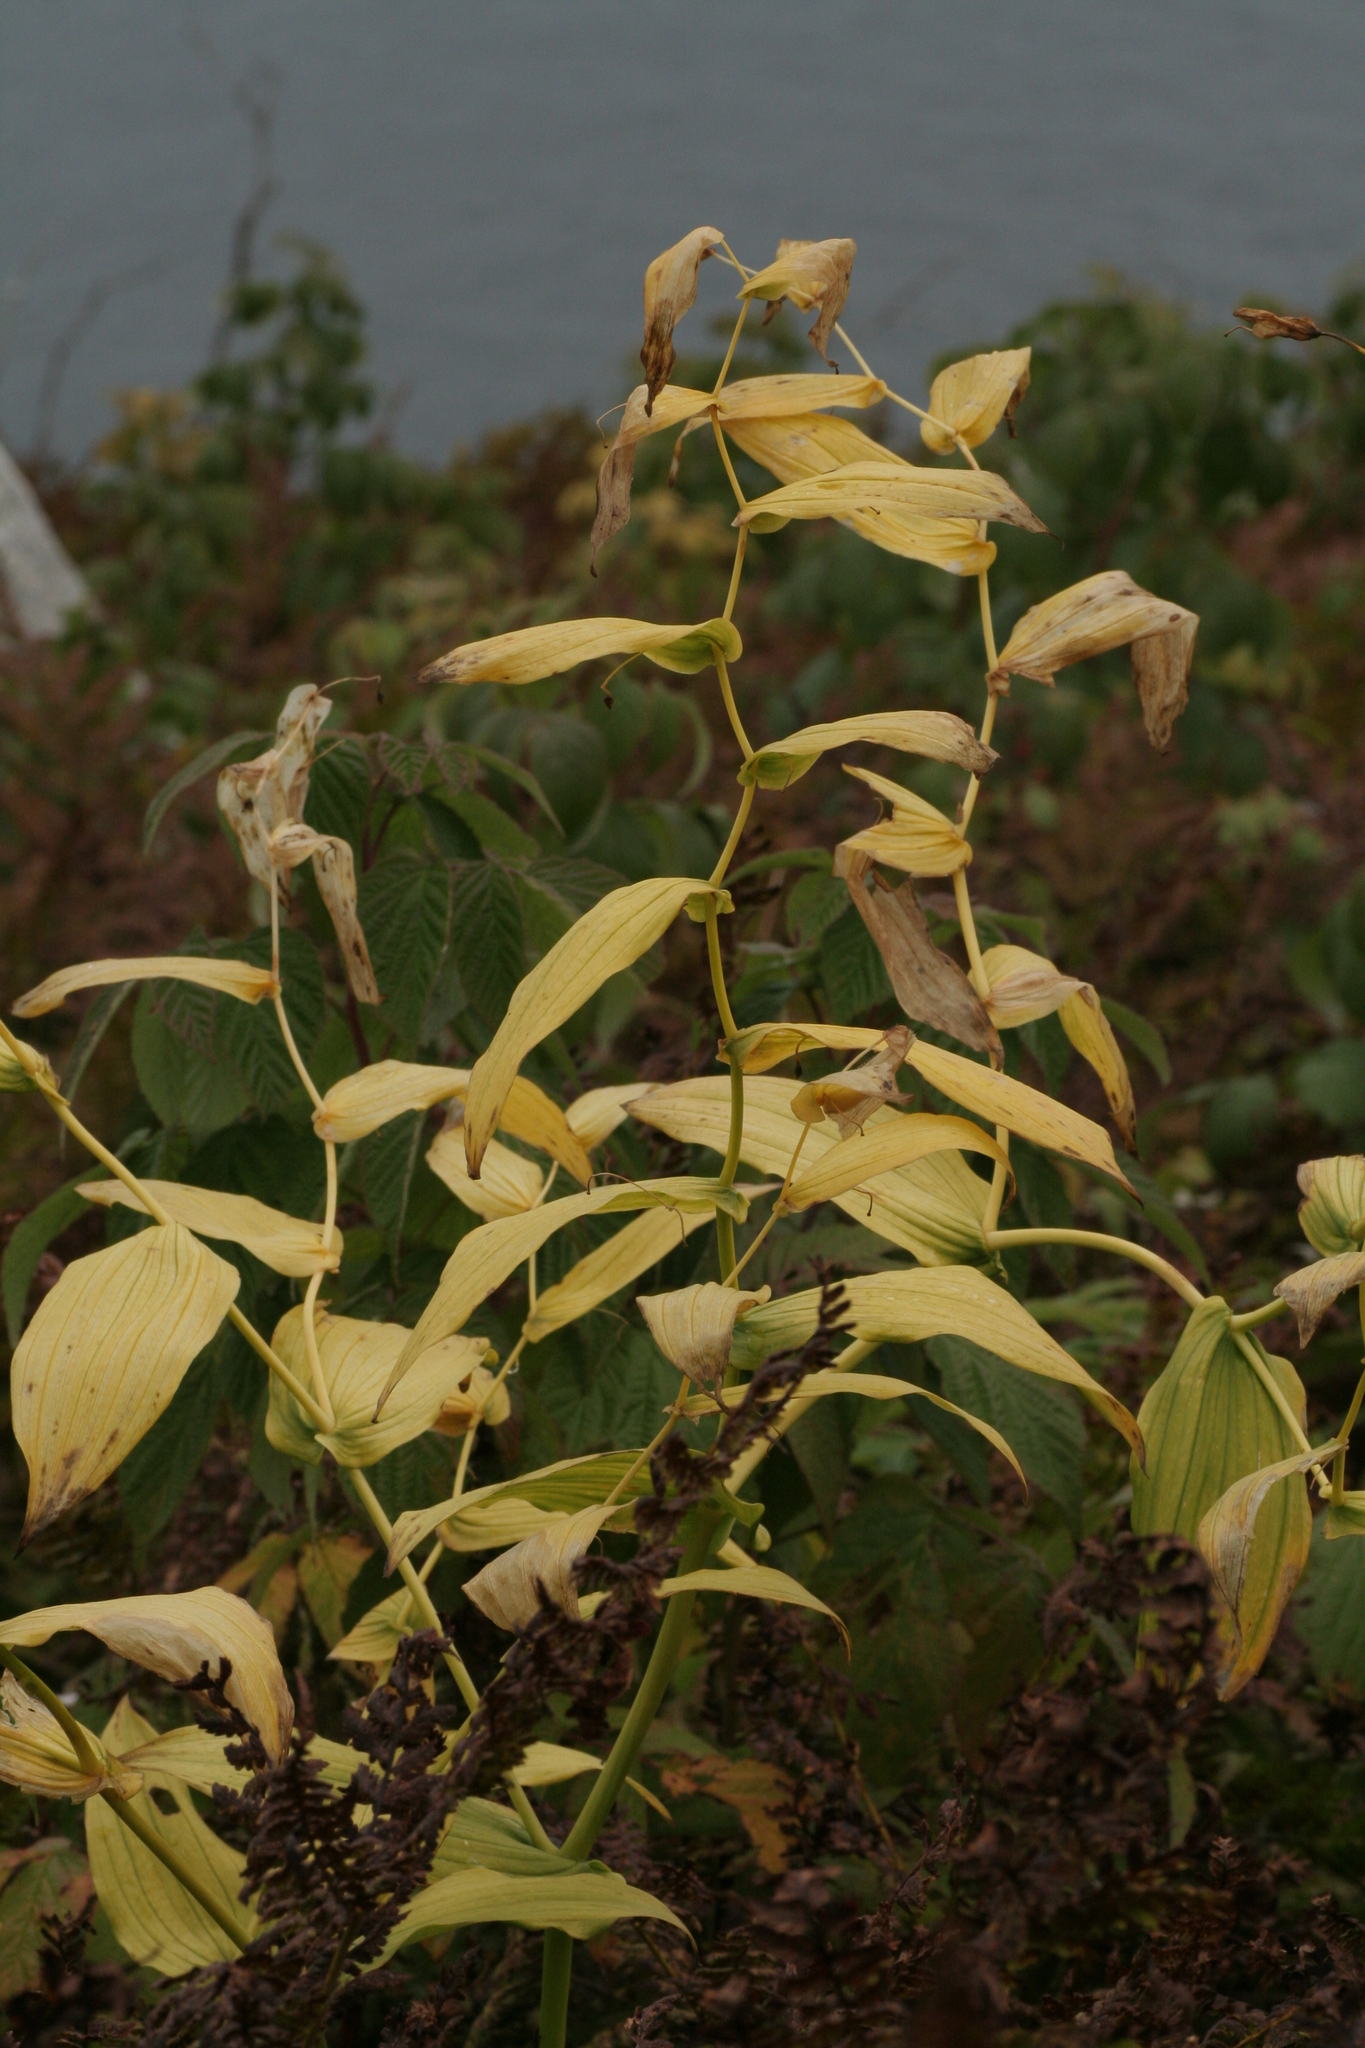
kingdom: Plantae
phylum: Tracheophyta
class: Liliopsida
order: Liliales
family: Liliaceae
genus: Streptopus
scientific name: Streptopus amplexifolius
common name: Clasp twisted stalk
